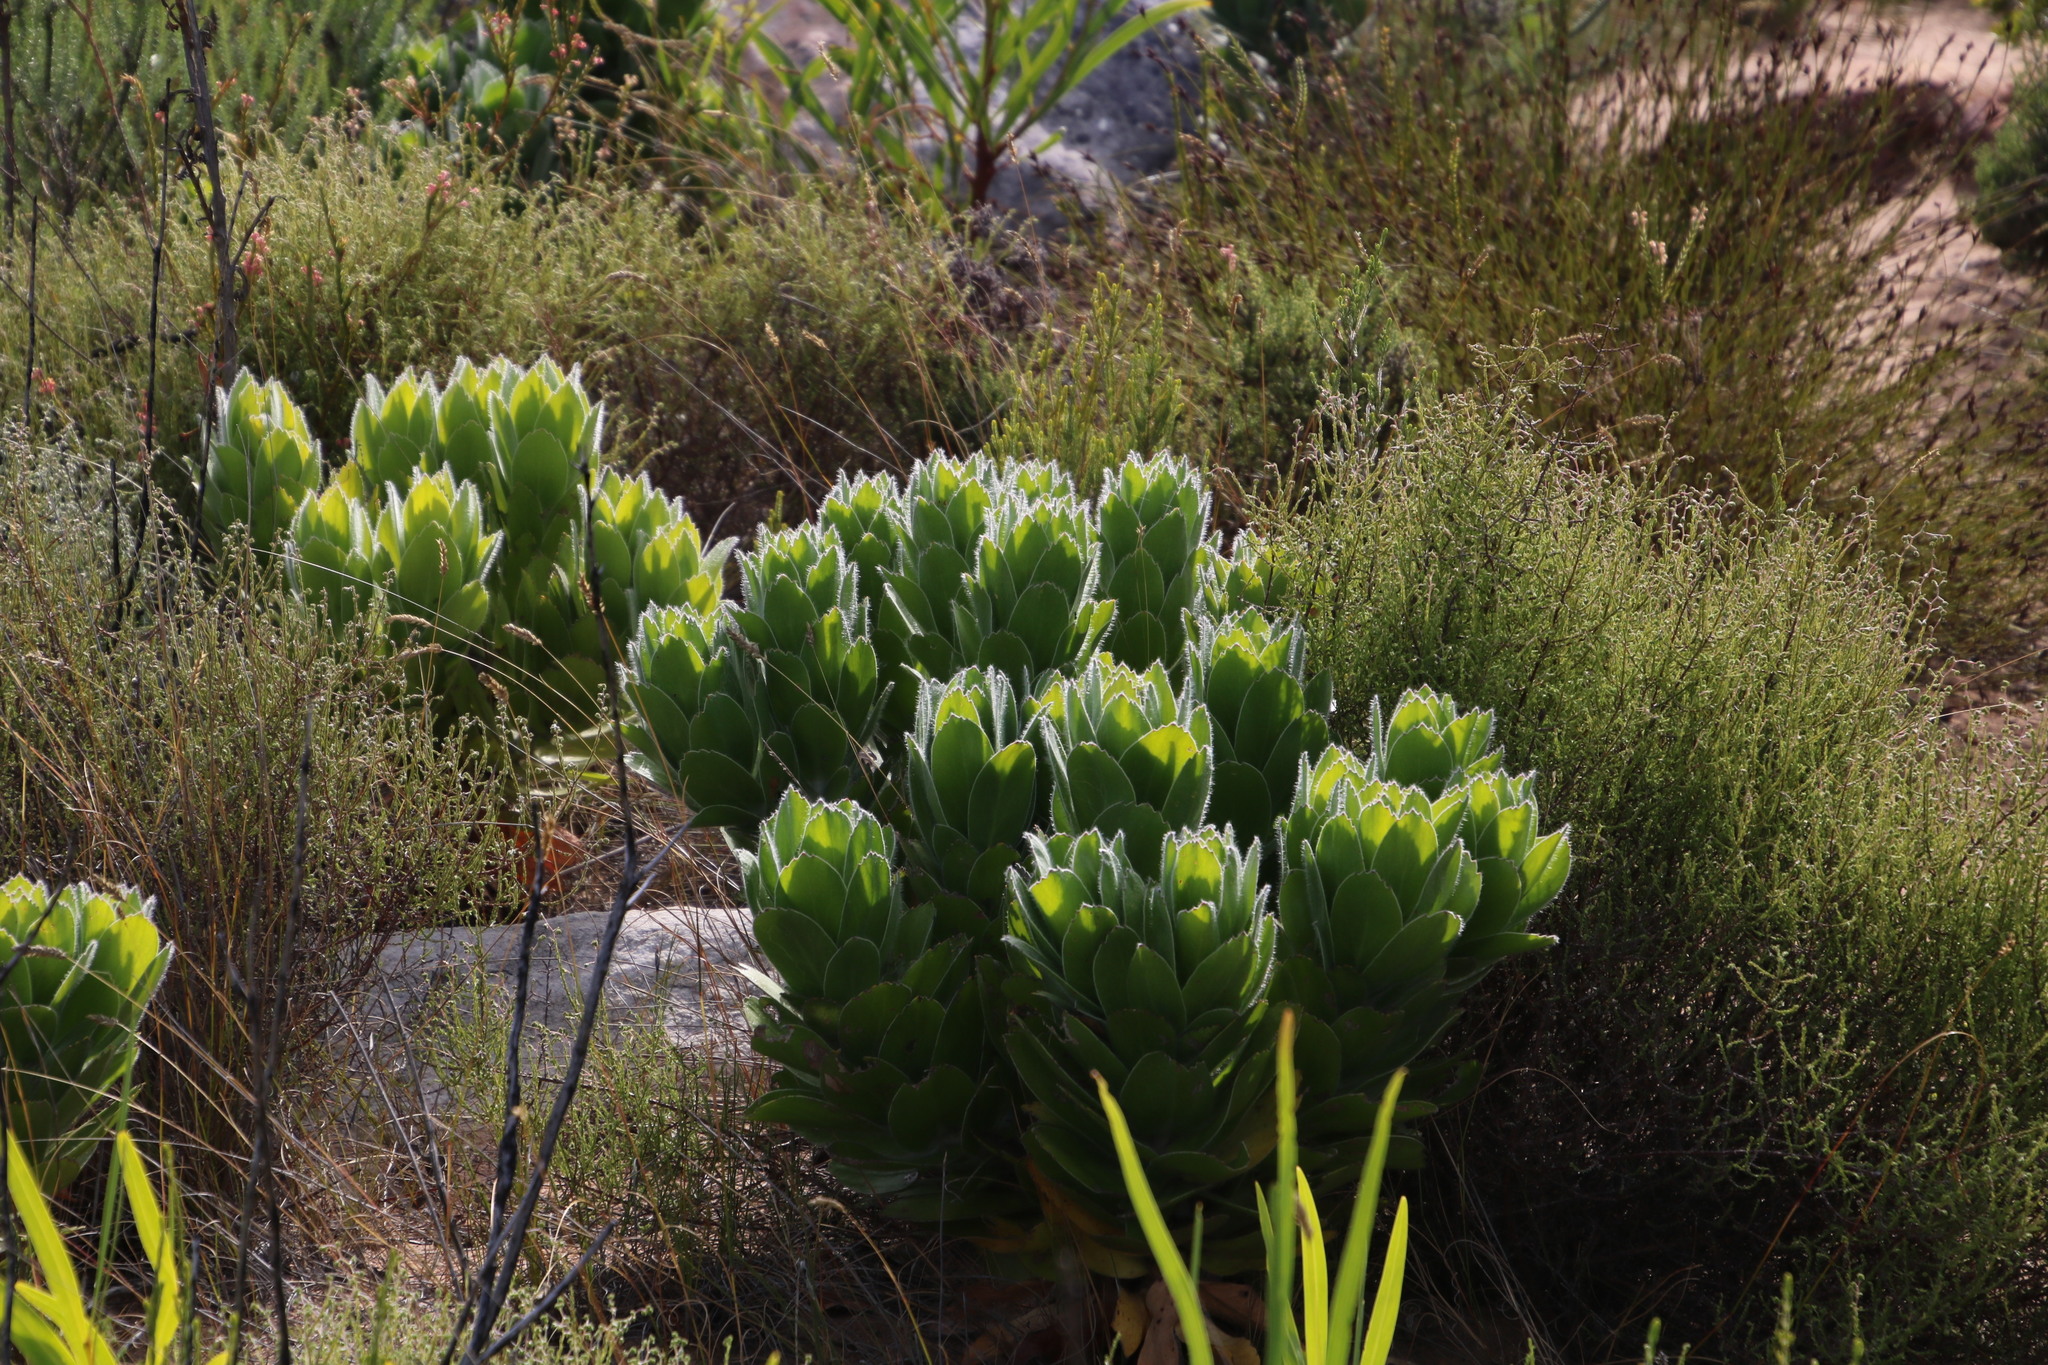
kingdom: Plantae
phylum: Tracheophyta
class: Magnoliopsida
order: Proteales
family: Proteaceae
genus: Leucospermum
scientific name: Leucospermum conocarpodendron
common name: Tree pincushion
